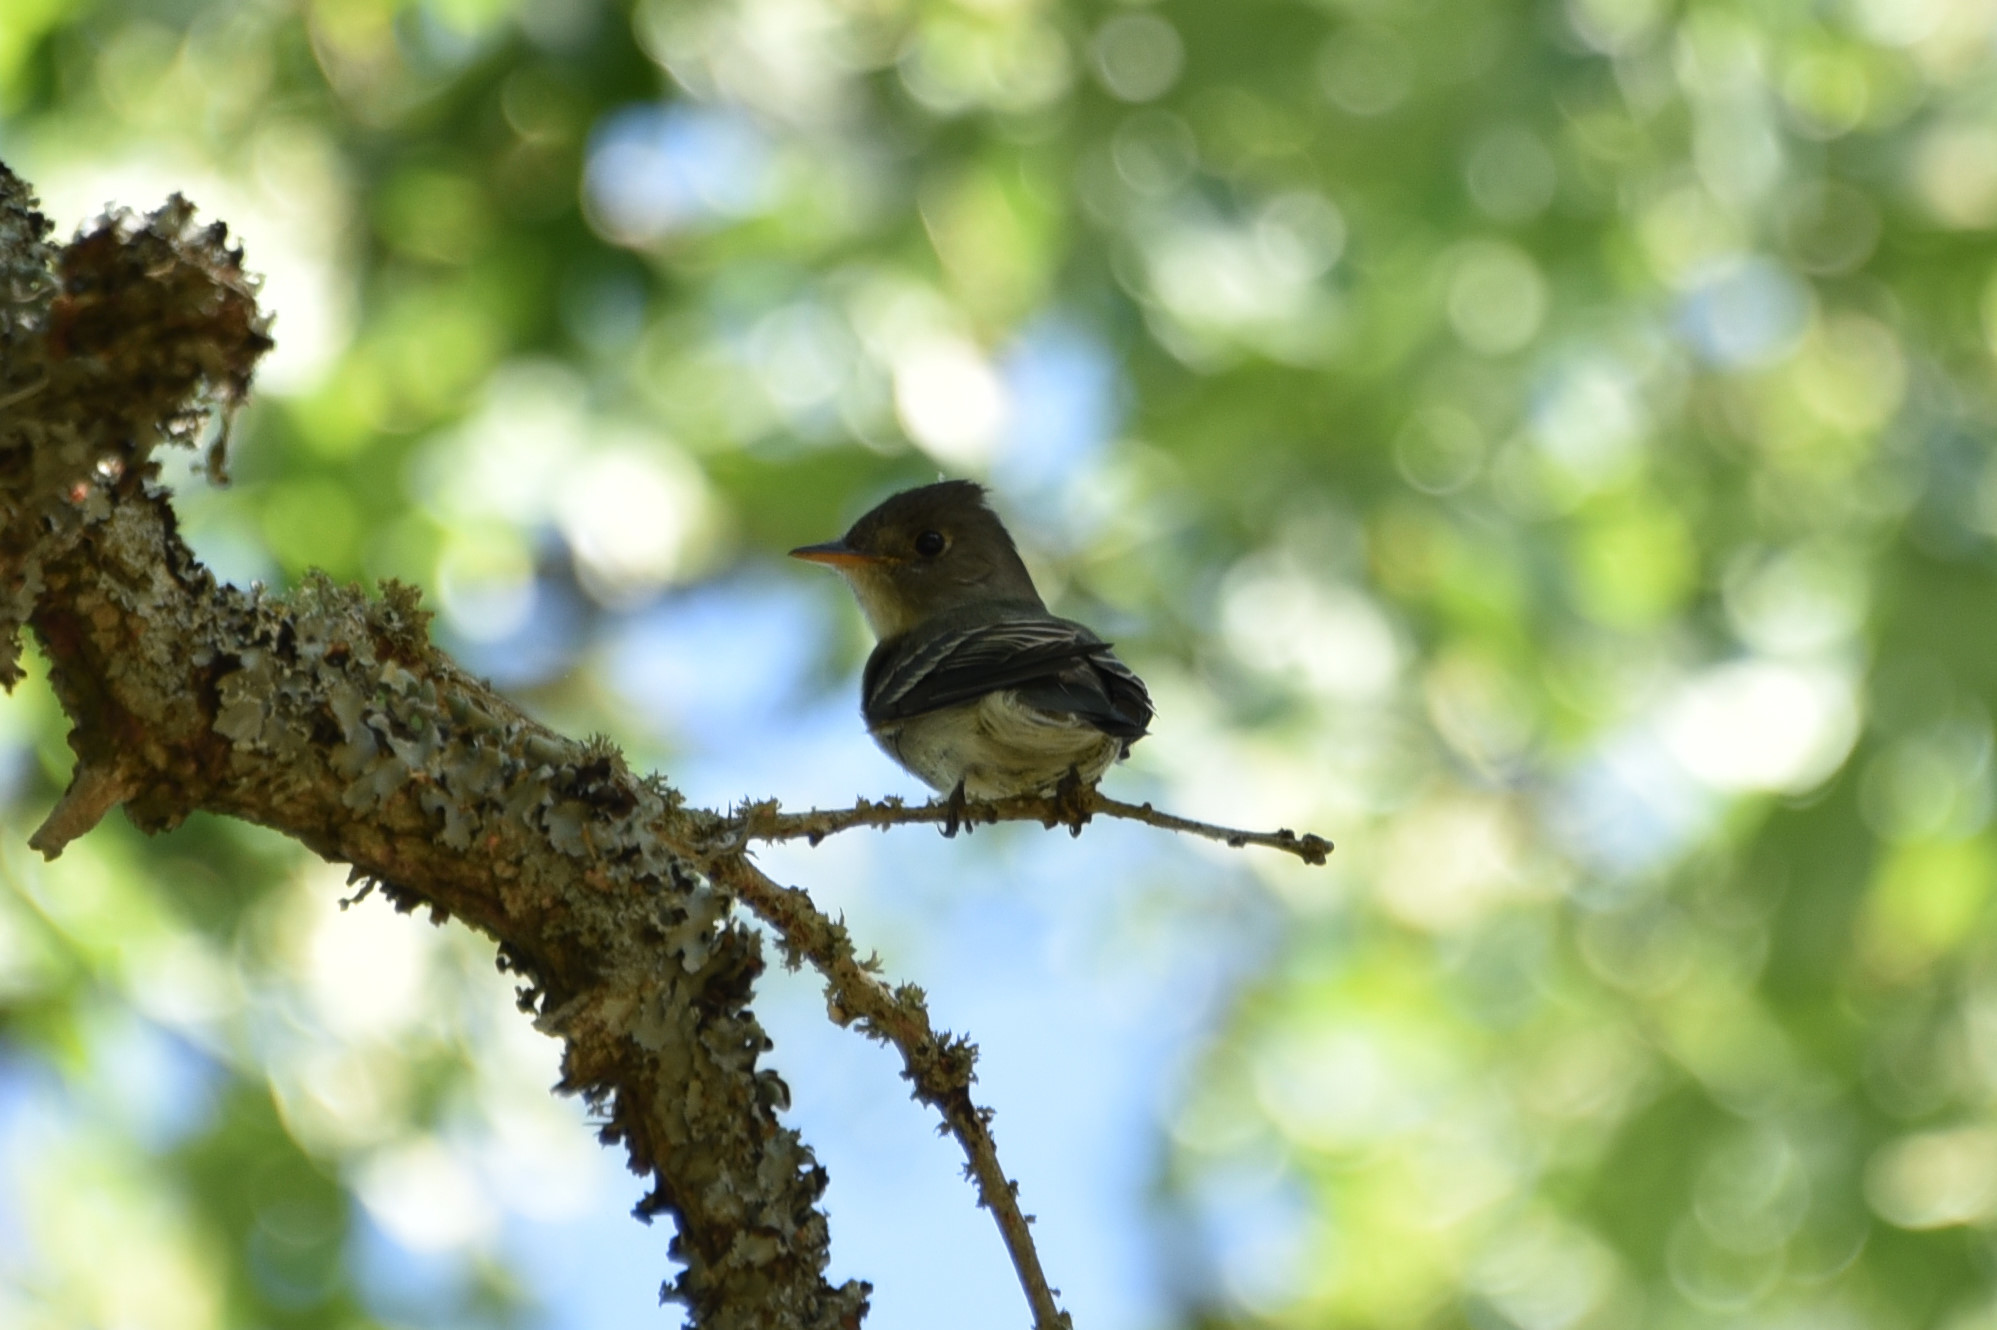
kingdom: Animalia
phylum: Chordata
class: Aves
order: Passeriformes
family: Tyrannidae
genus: Contopus
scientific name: Contopus virens
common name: Eastern wood-pewee
